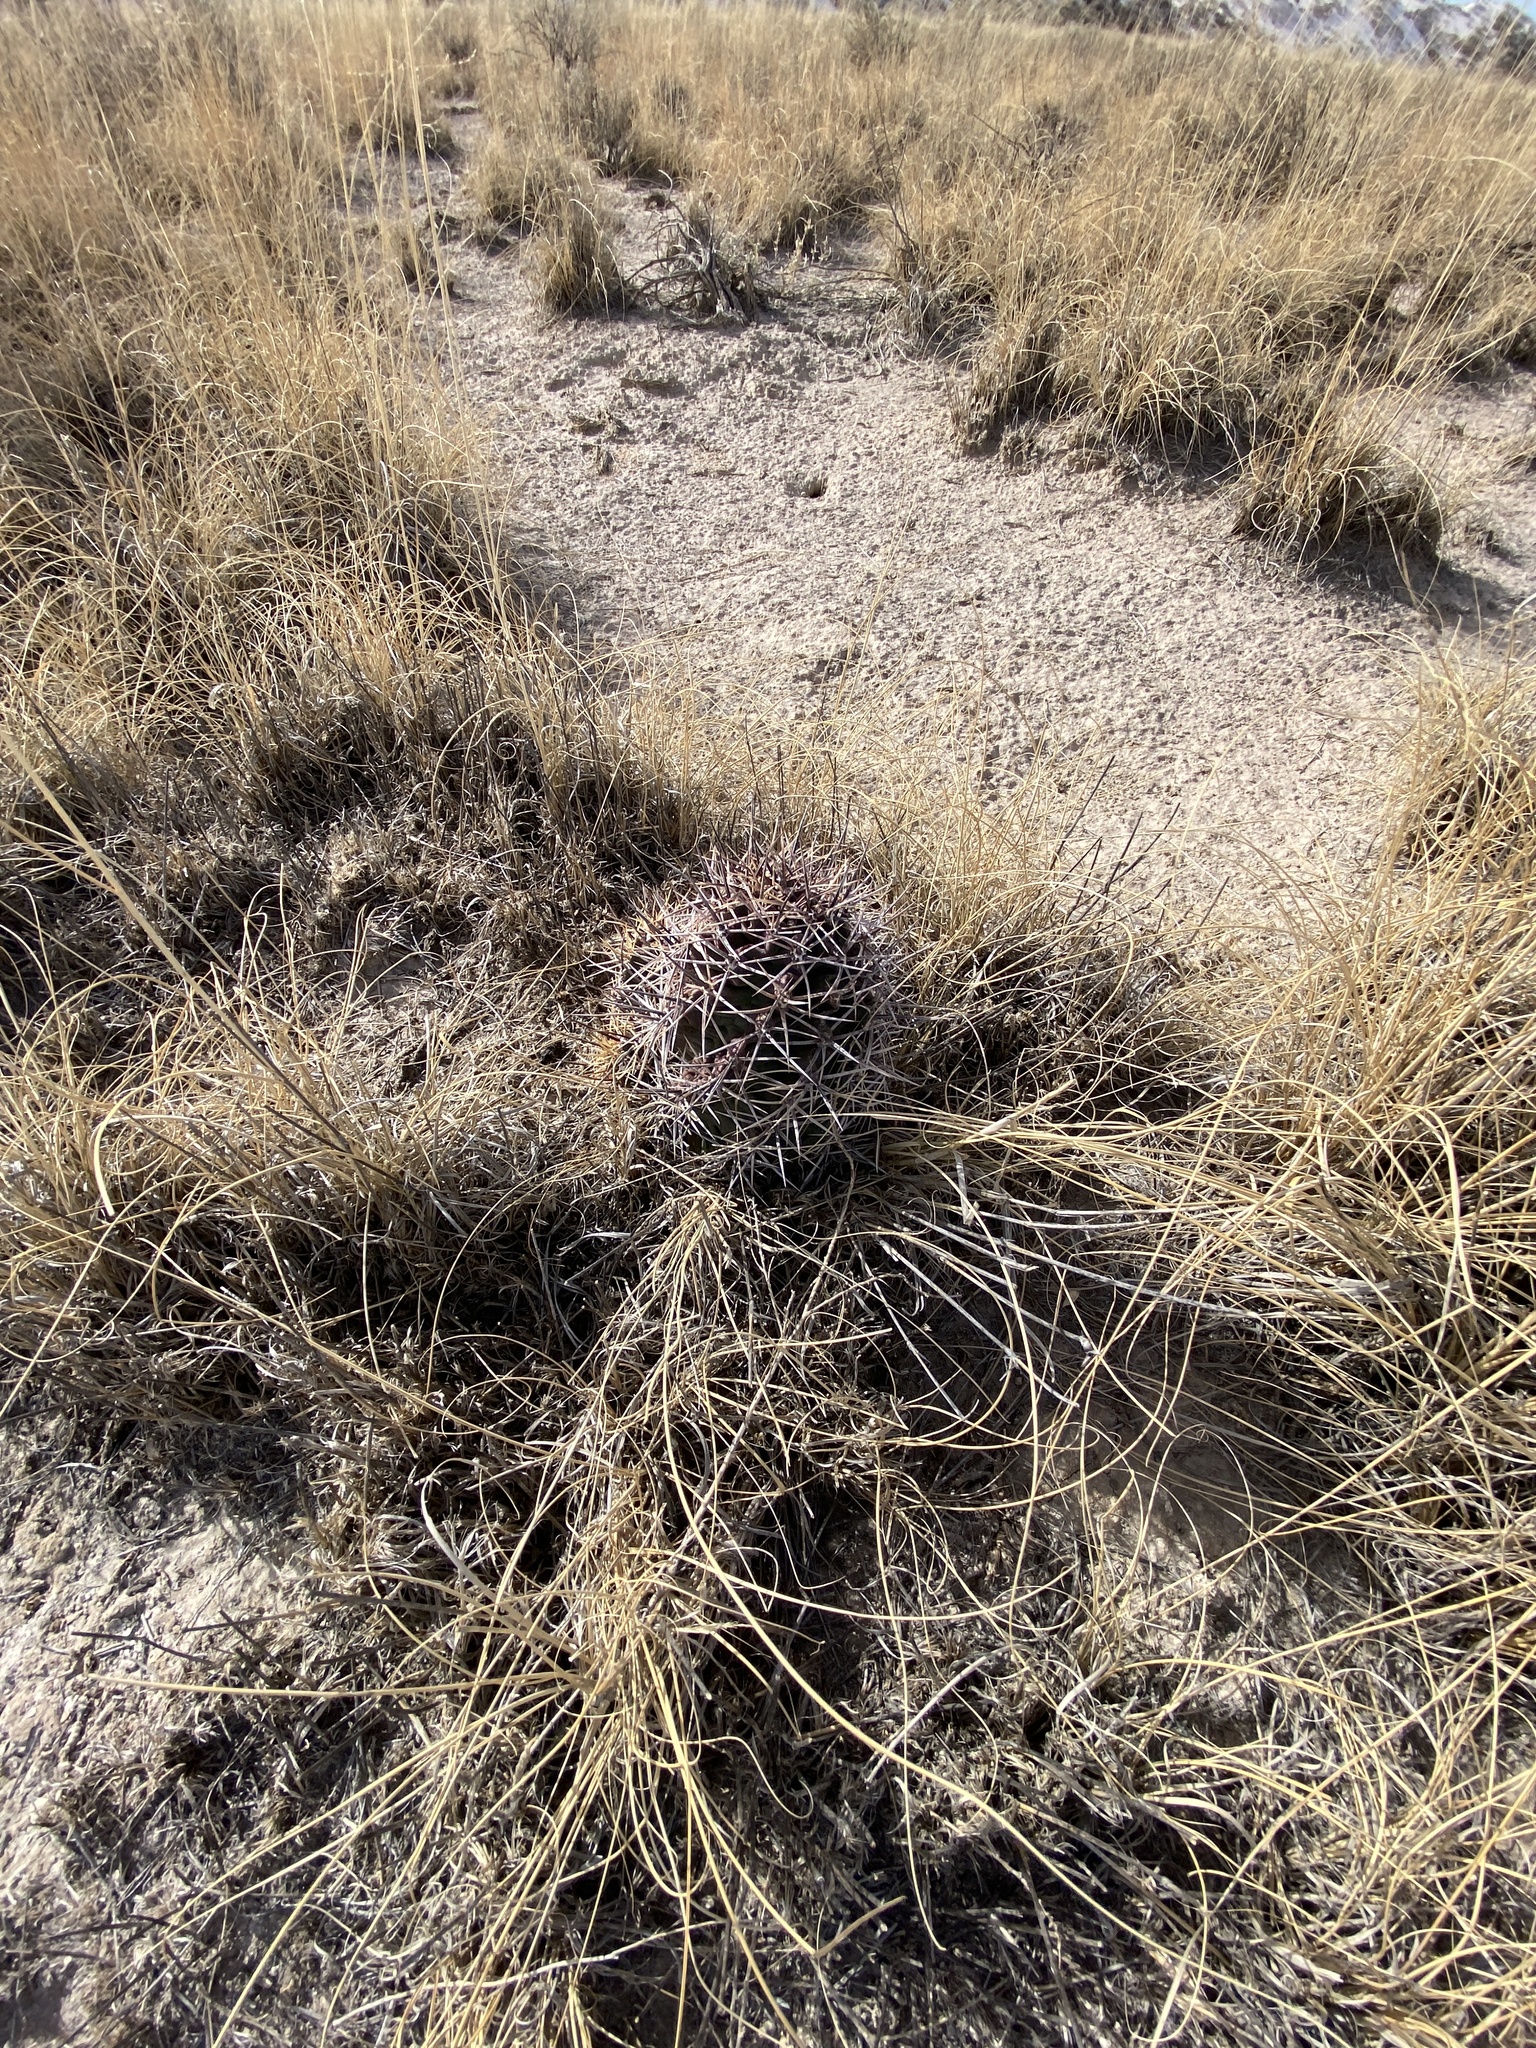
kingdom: Plantae
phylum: Tracheophyta
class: Magnoliopsida
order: Caryophyllales
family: Cactaceae
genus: Echinocereus
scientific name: Echinocereus triglochidiatus
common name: Claretcup hedgehog
